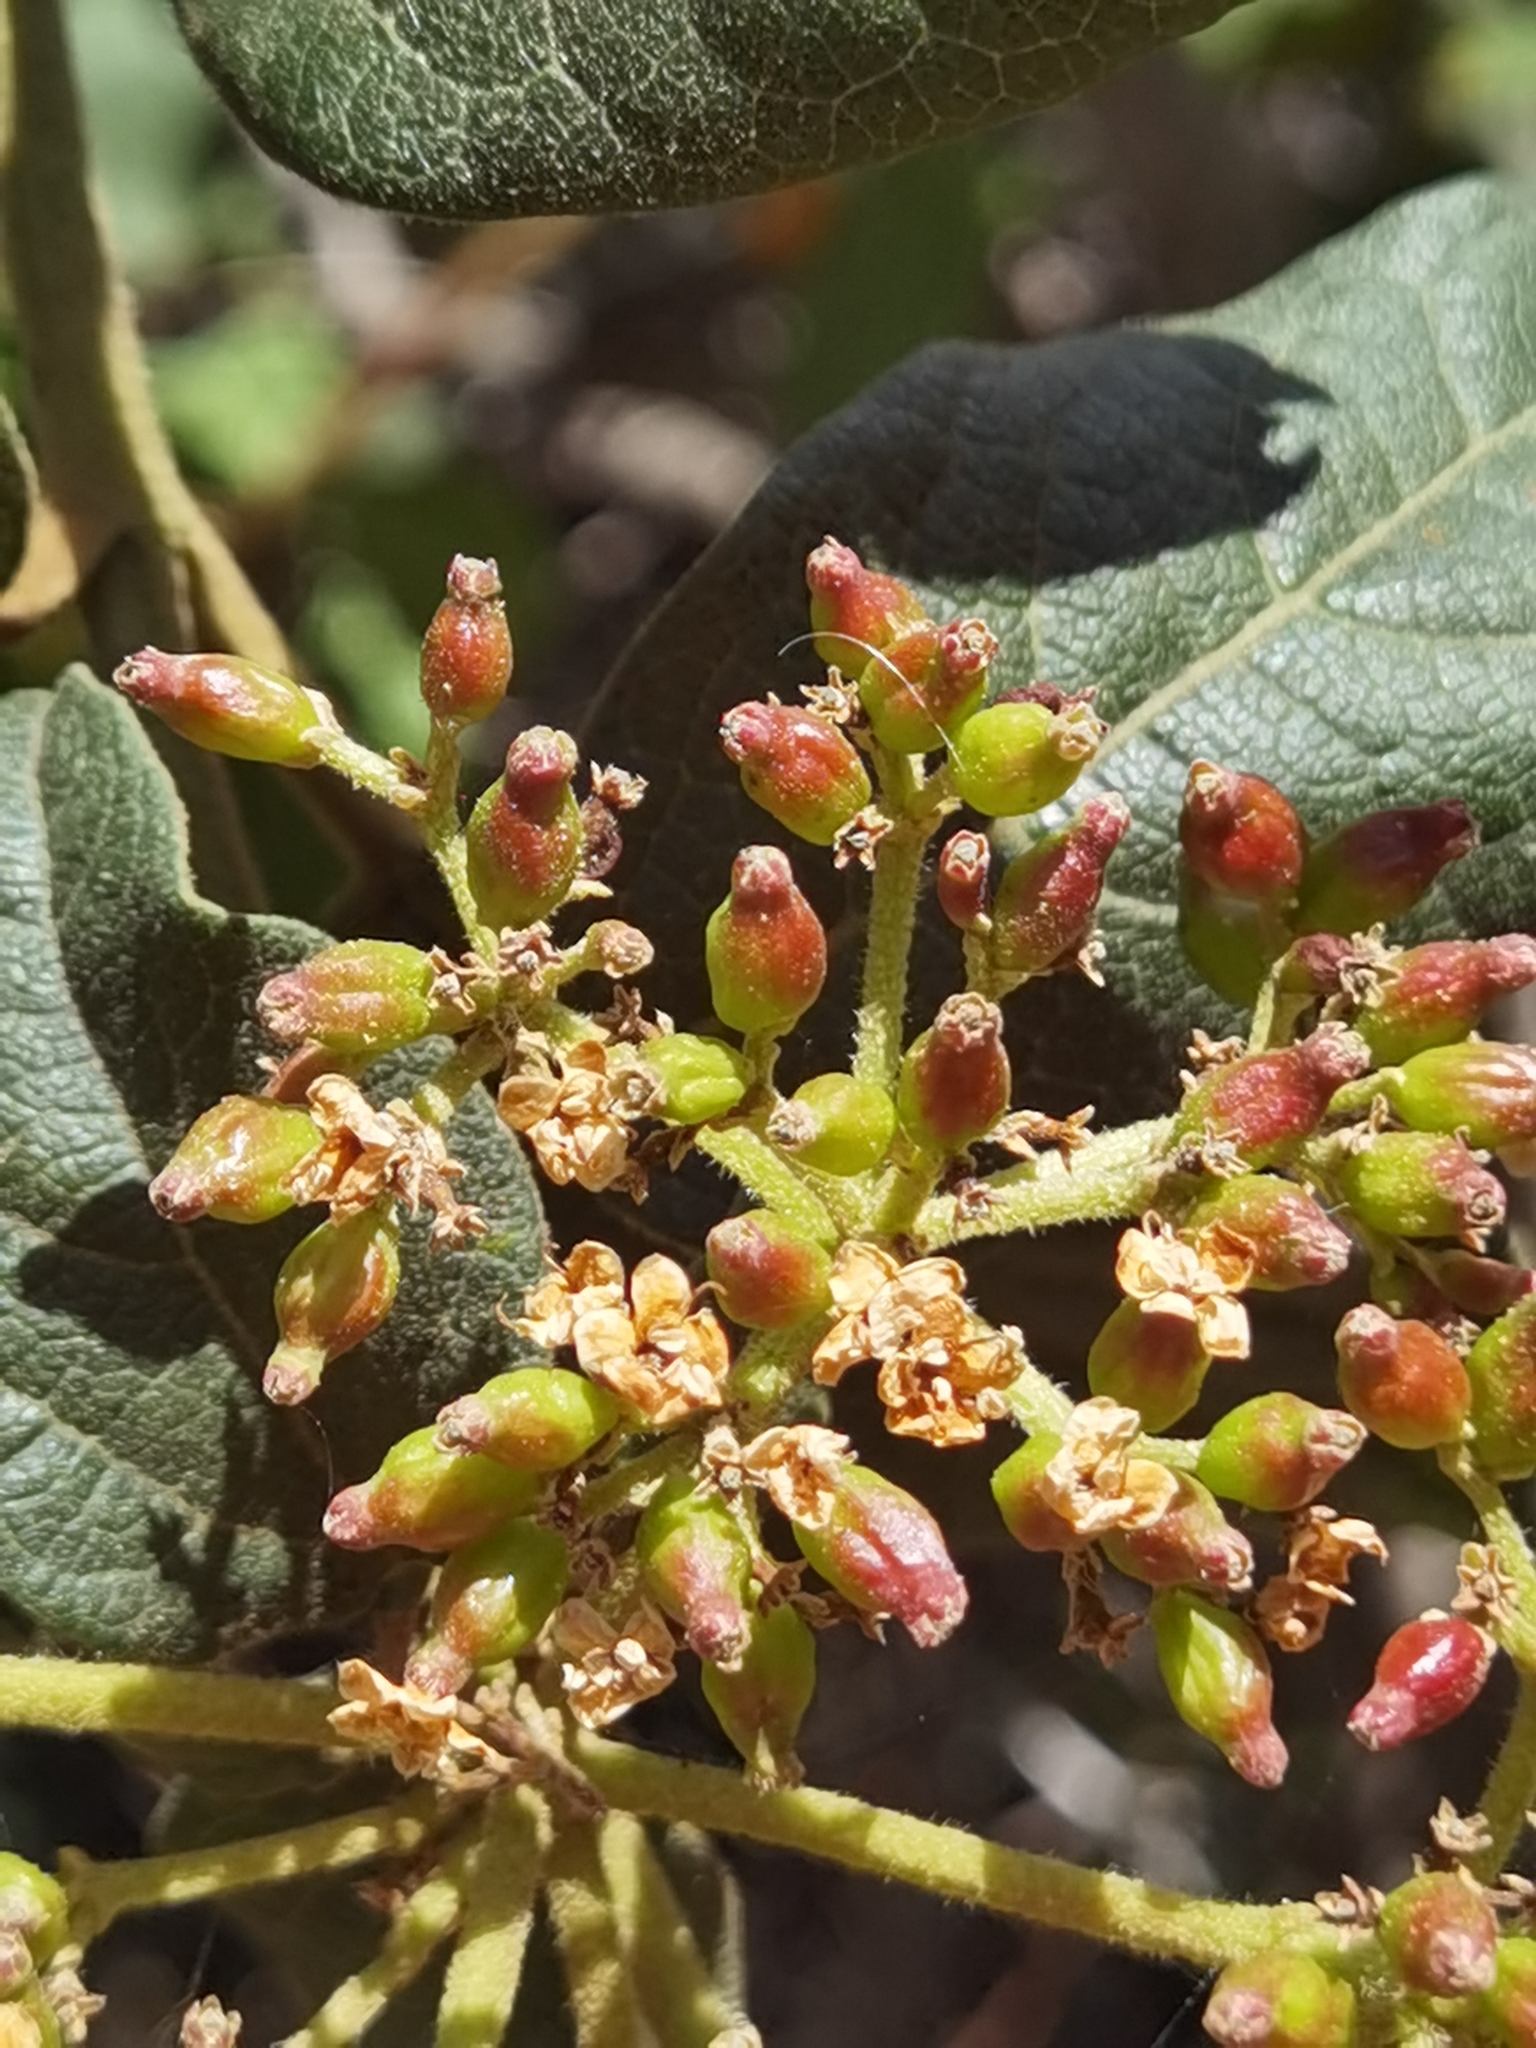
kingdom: Plantae
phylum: Tracheophyta
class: Magnoliopsida
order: Dipsacales
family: Viburnaceae
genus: Viburnum
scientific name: Viburnum rugosum
